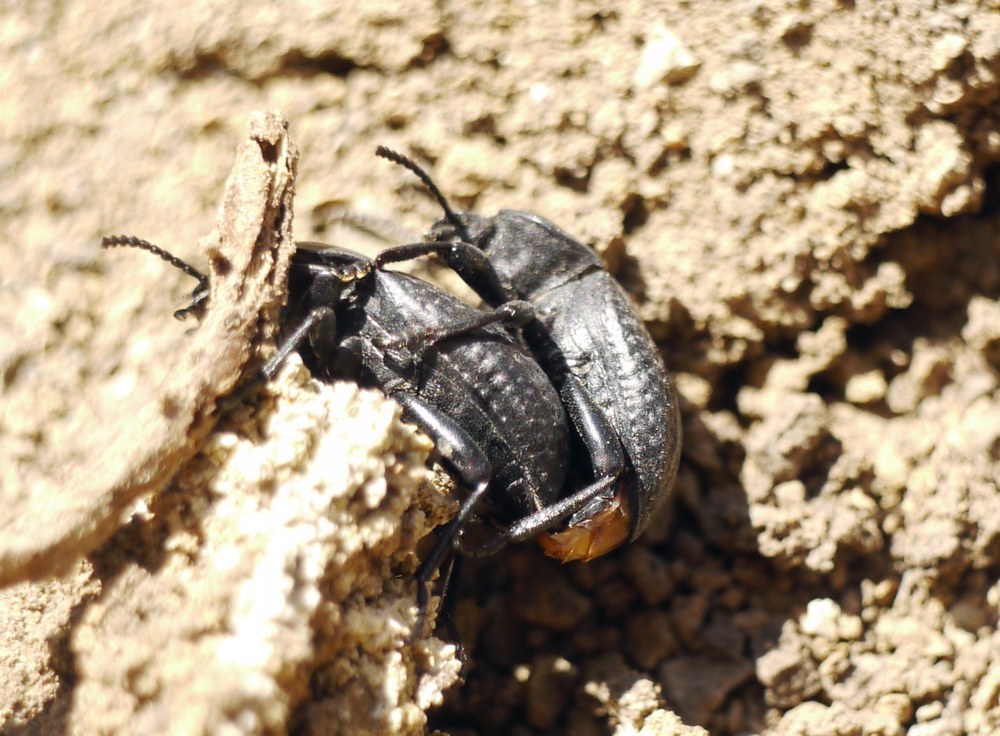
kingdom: Animalia
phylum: Arthropoda
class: Insecta
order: Coleoptera
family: Tenebrionidae
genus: Dendarus
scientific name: Dendarus punctatus
